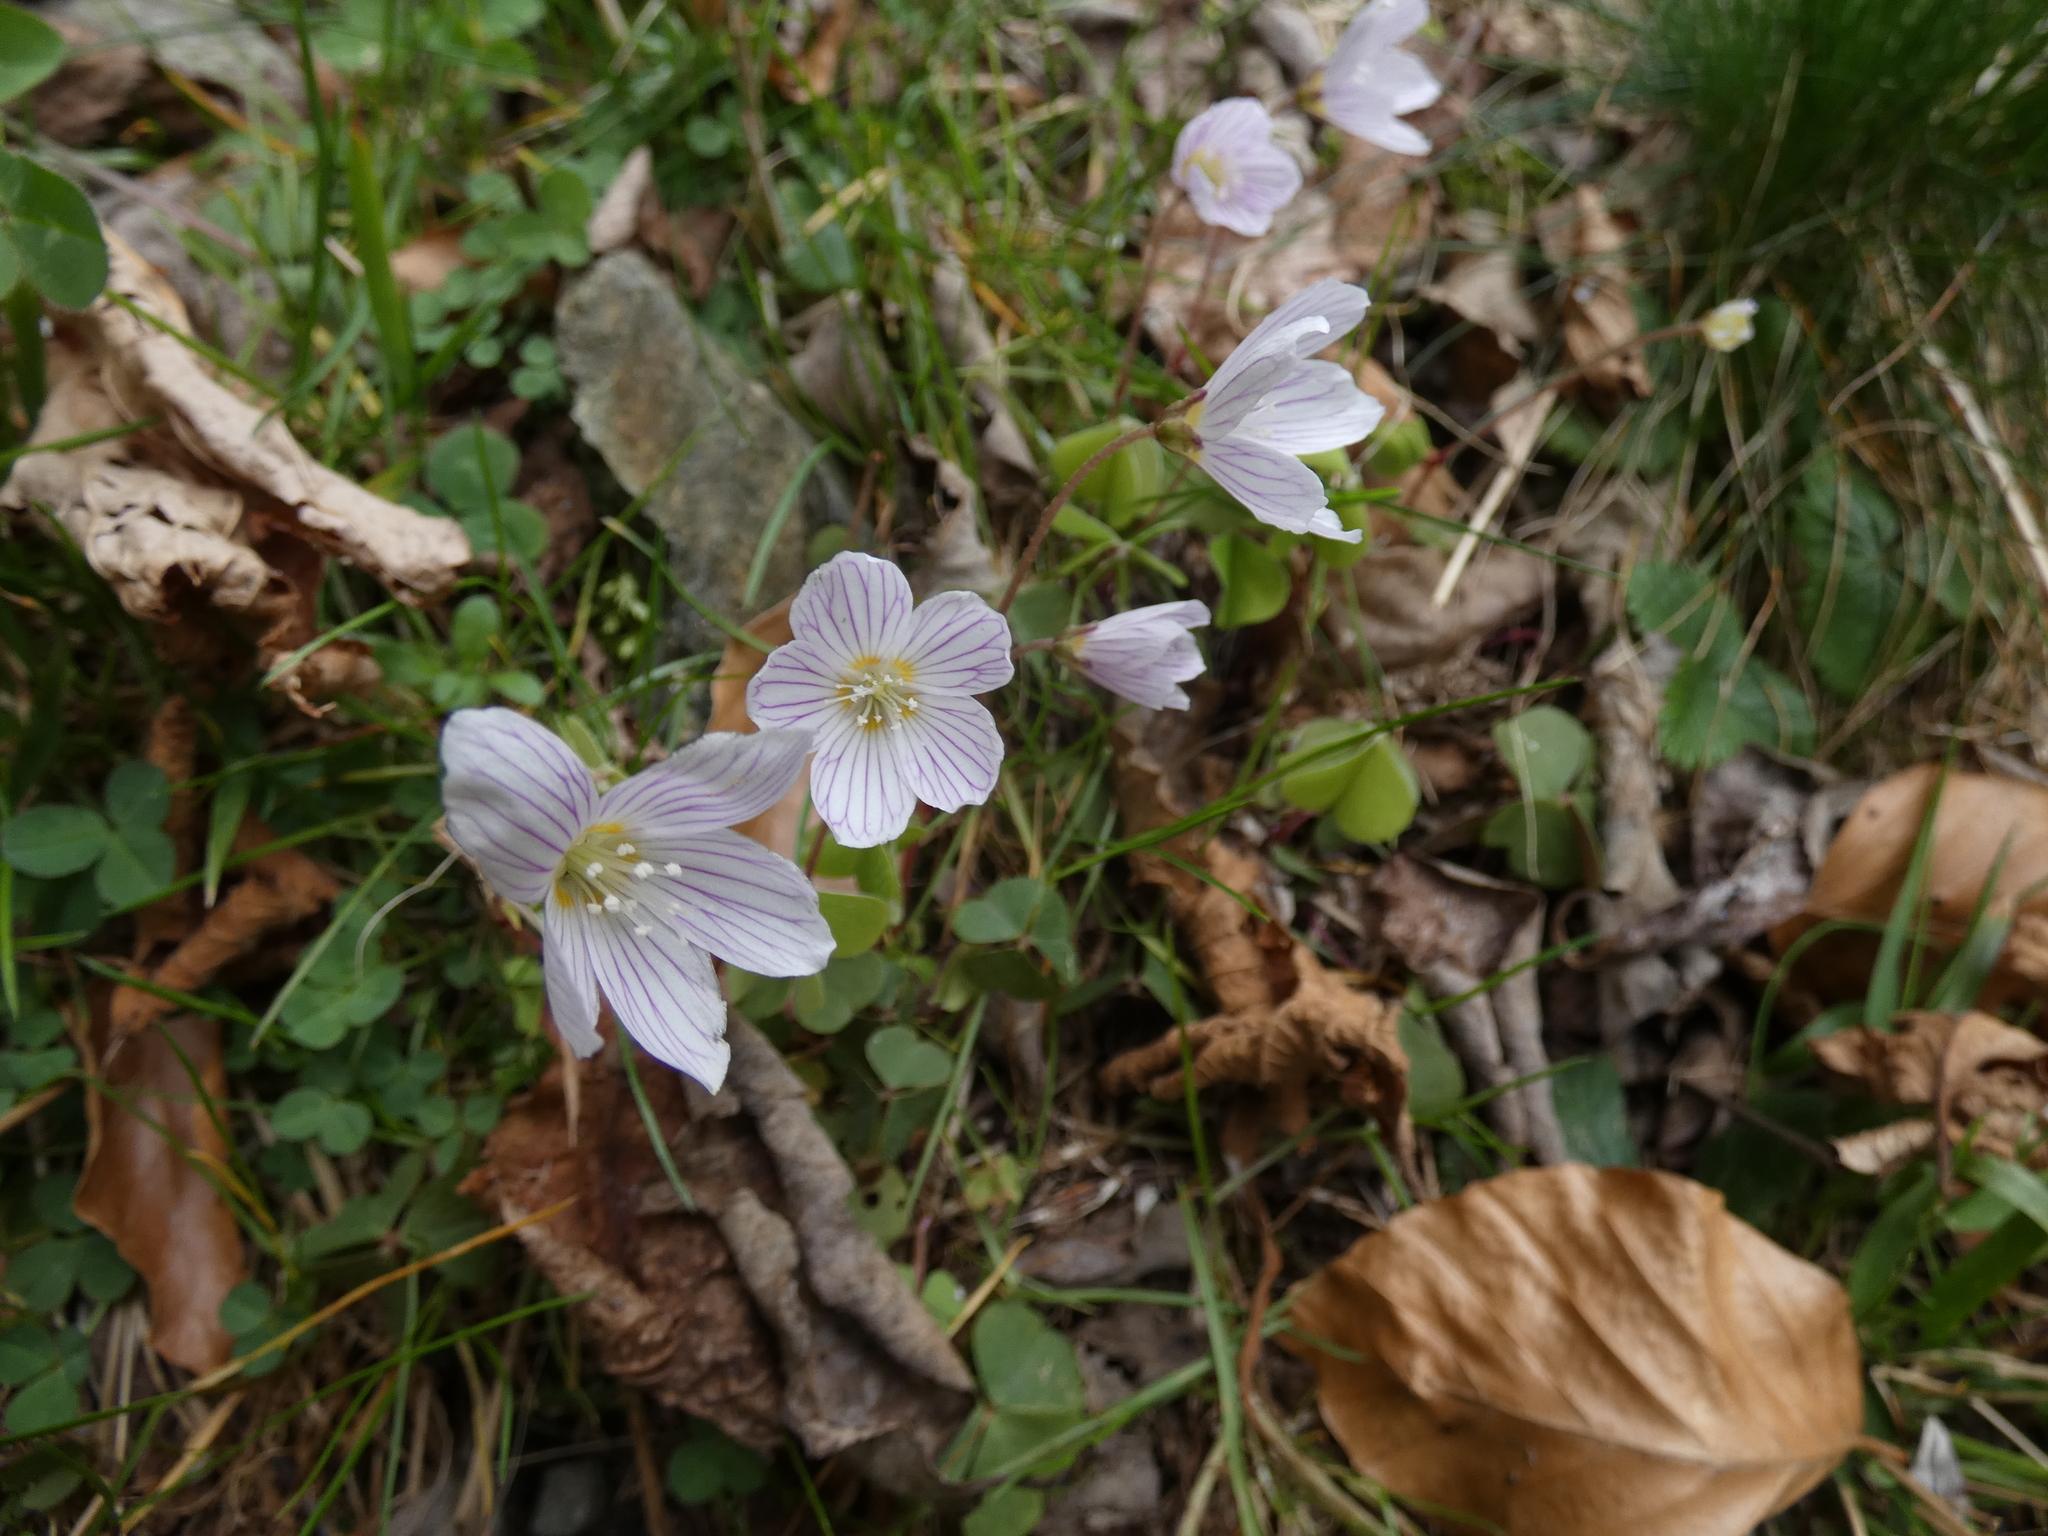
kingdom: Plantae
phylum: Tracheophyta
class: Magnoliopsida
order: Oxalidales
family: Oxalidaceae
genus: Oxalis
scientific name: Oxalis acetosella
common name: Wood-sorrel
